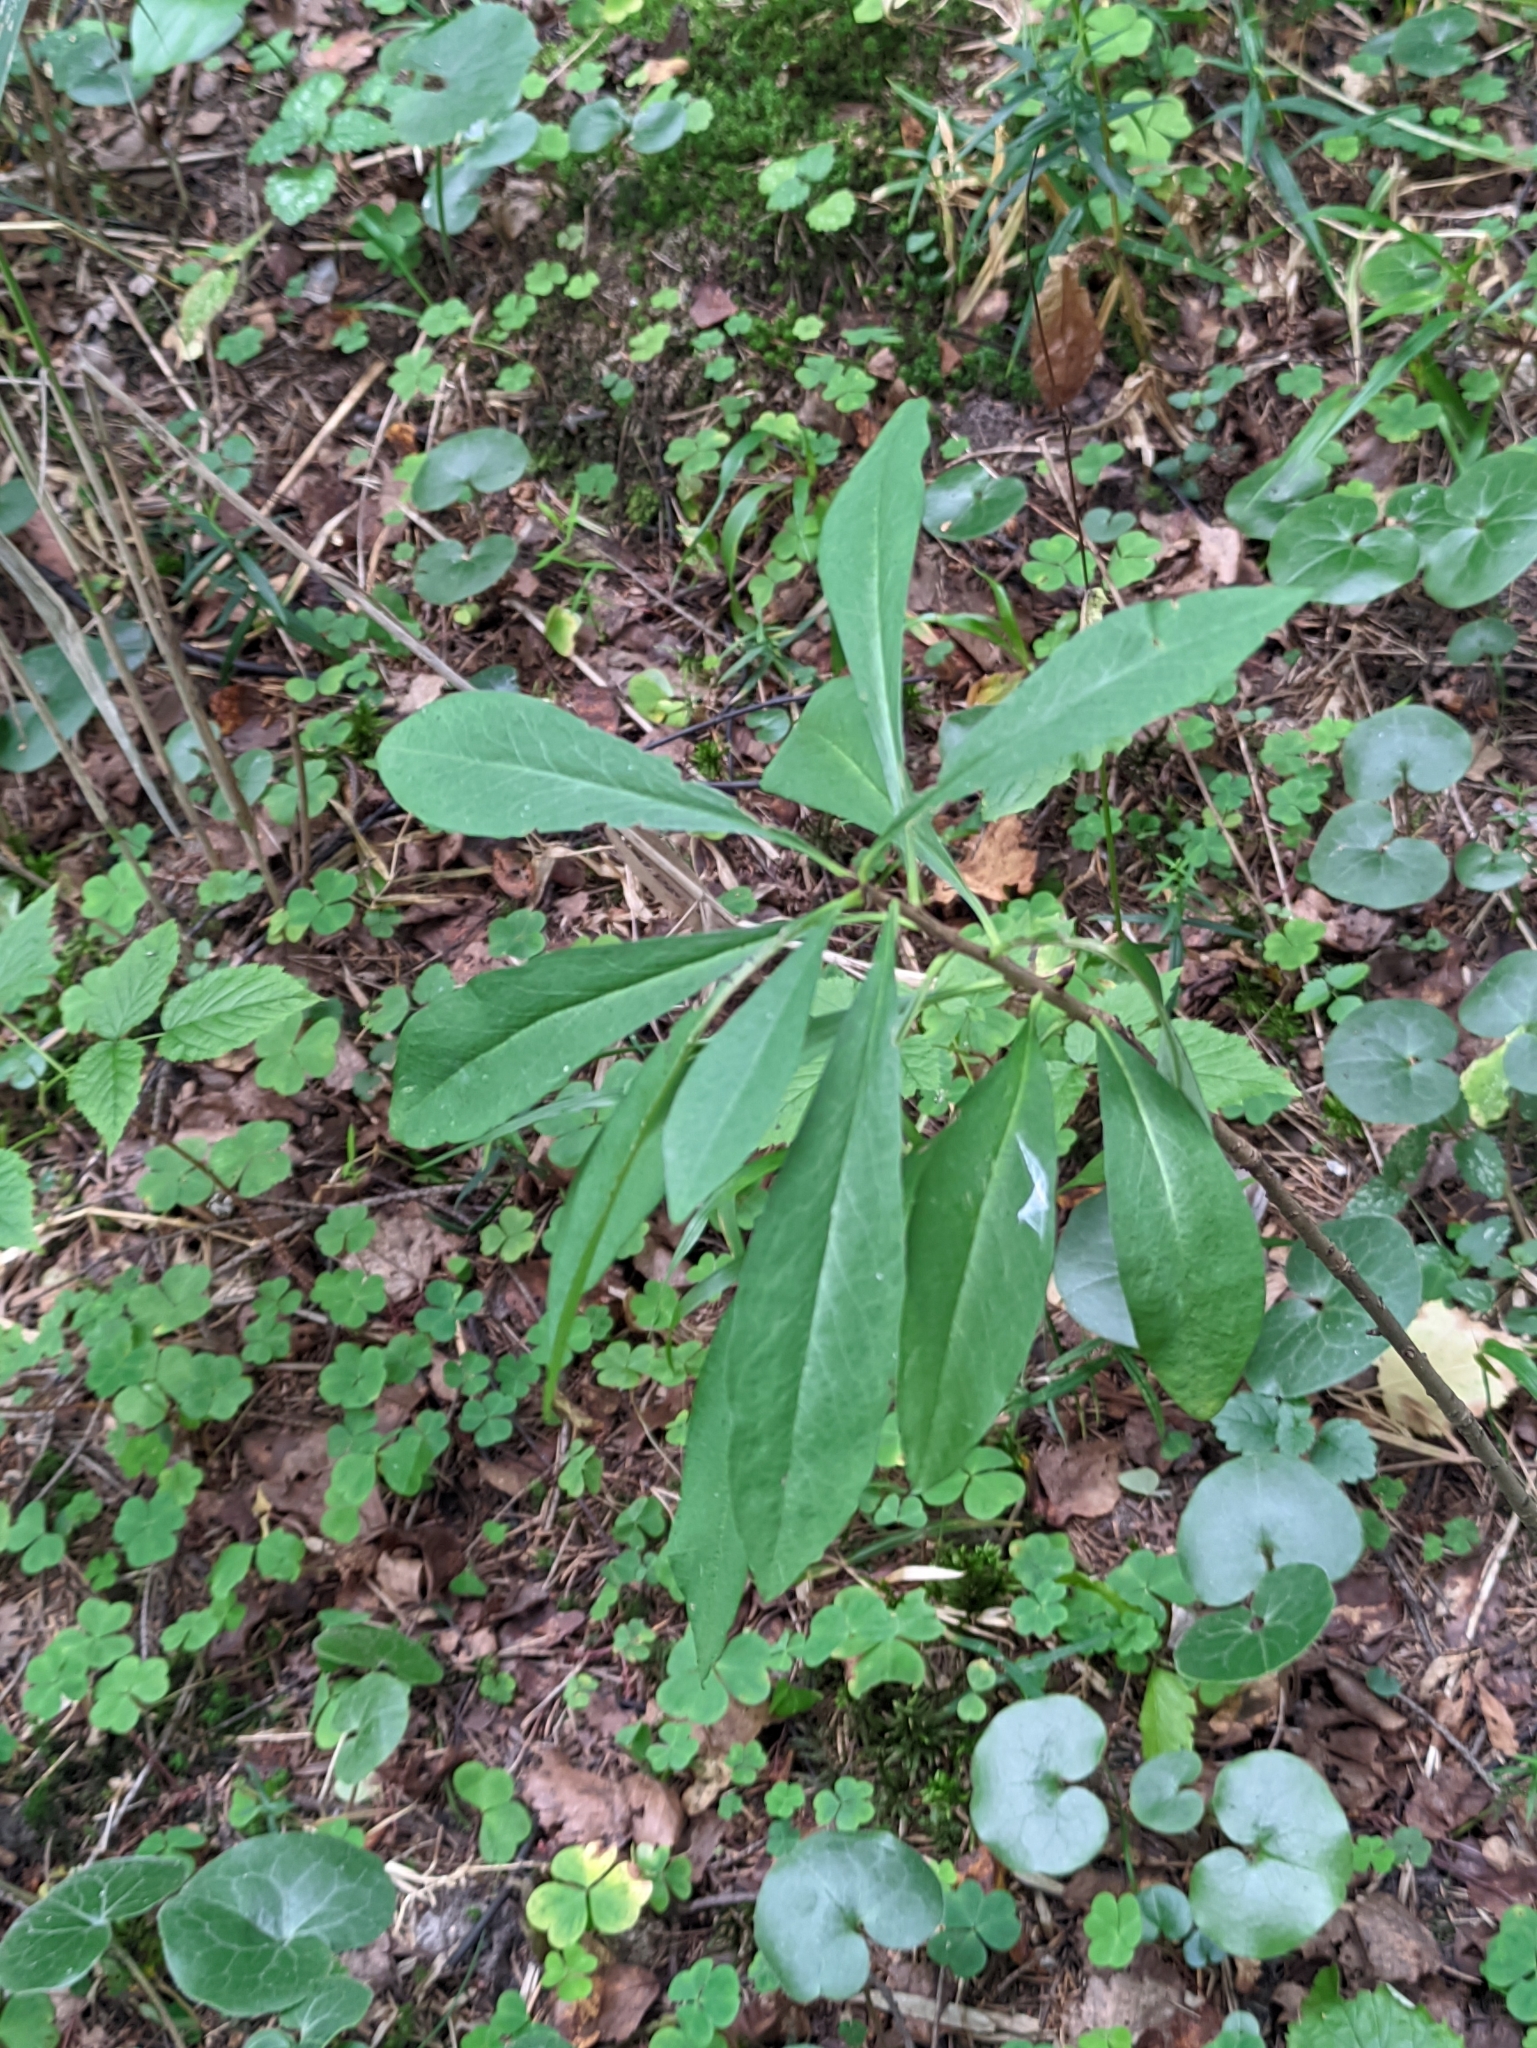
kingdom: Plantae
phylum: Tracheophyta
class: Magnoliopsida
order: Malvales
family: Thymelaeaceae
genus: Daphne
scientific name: Daphne mezereum
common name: Mezereon
